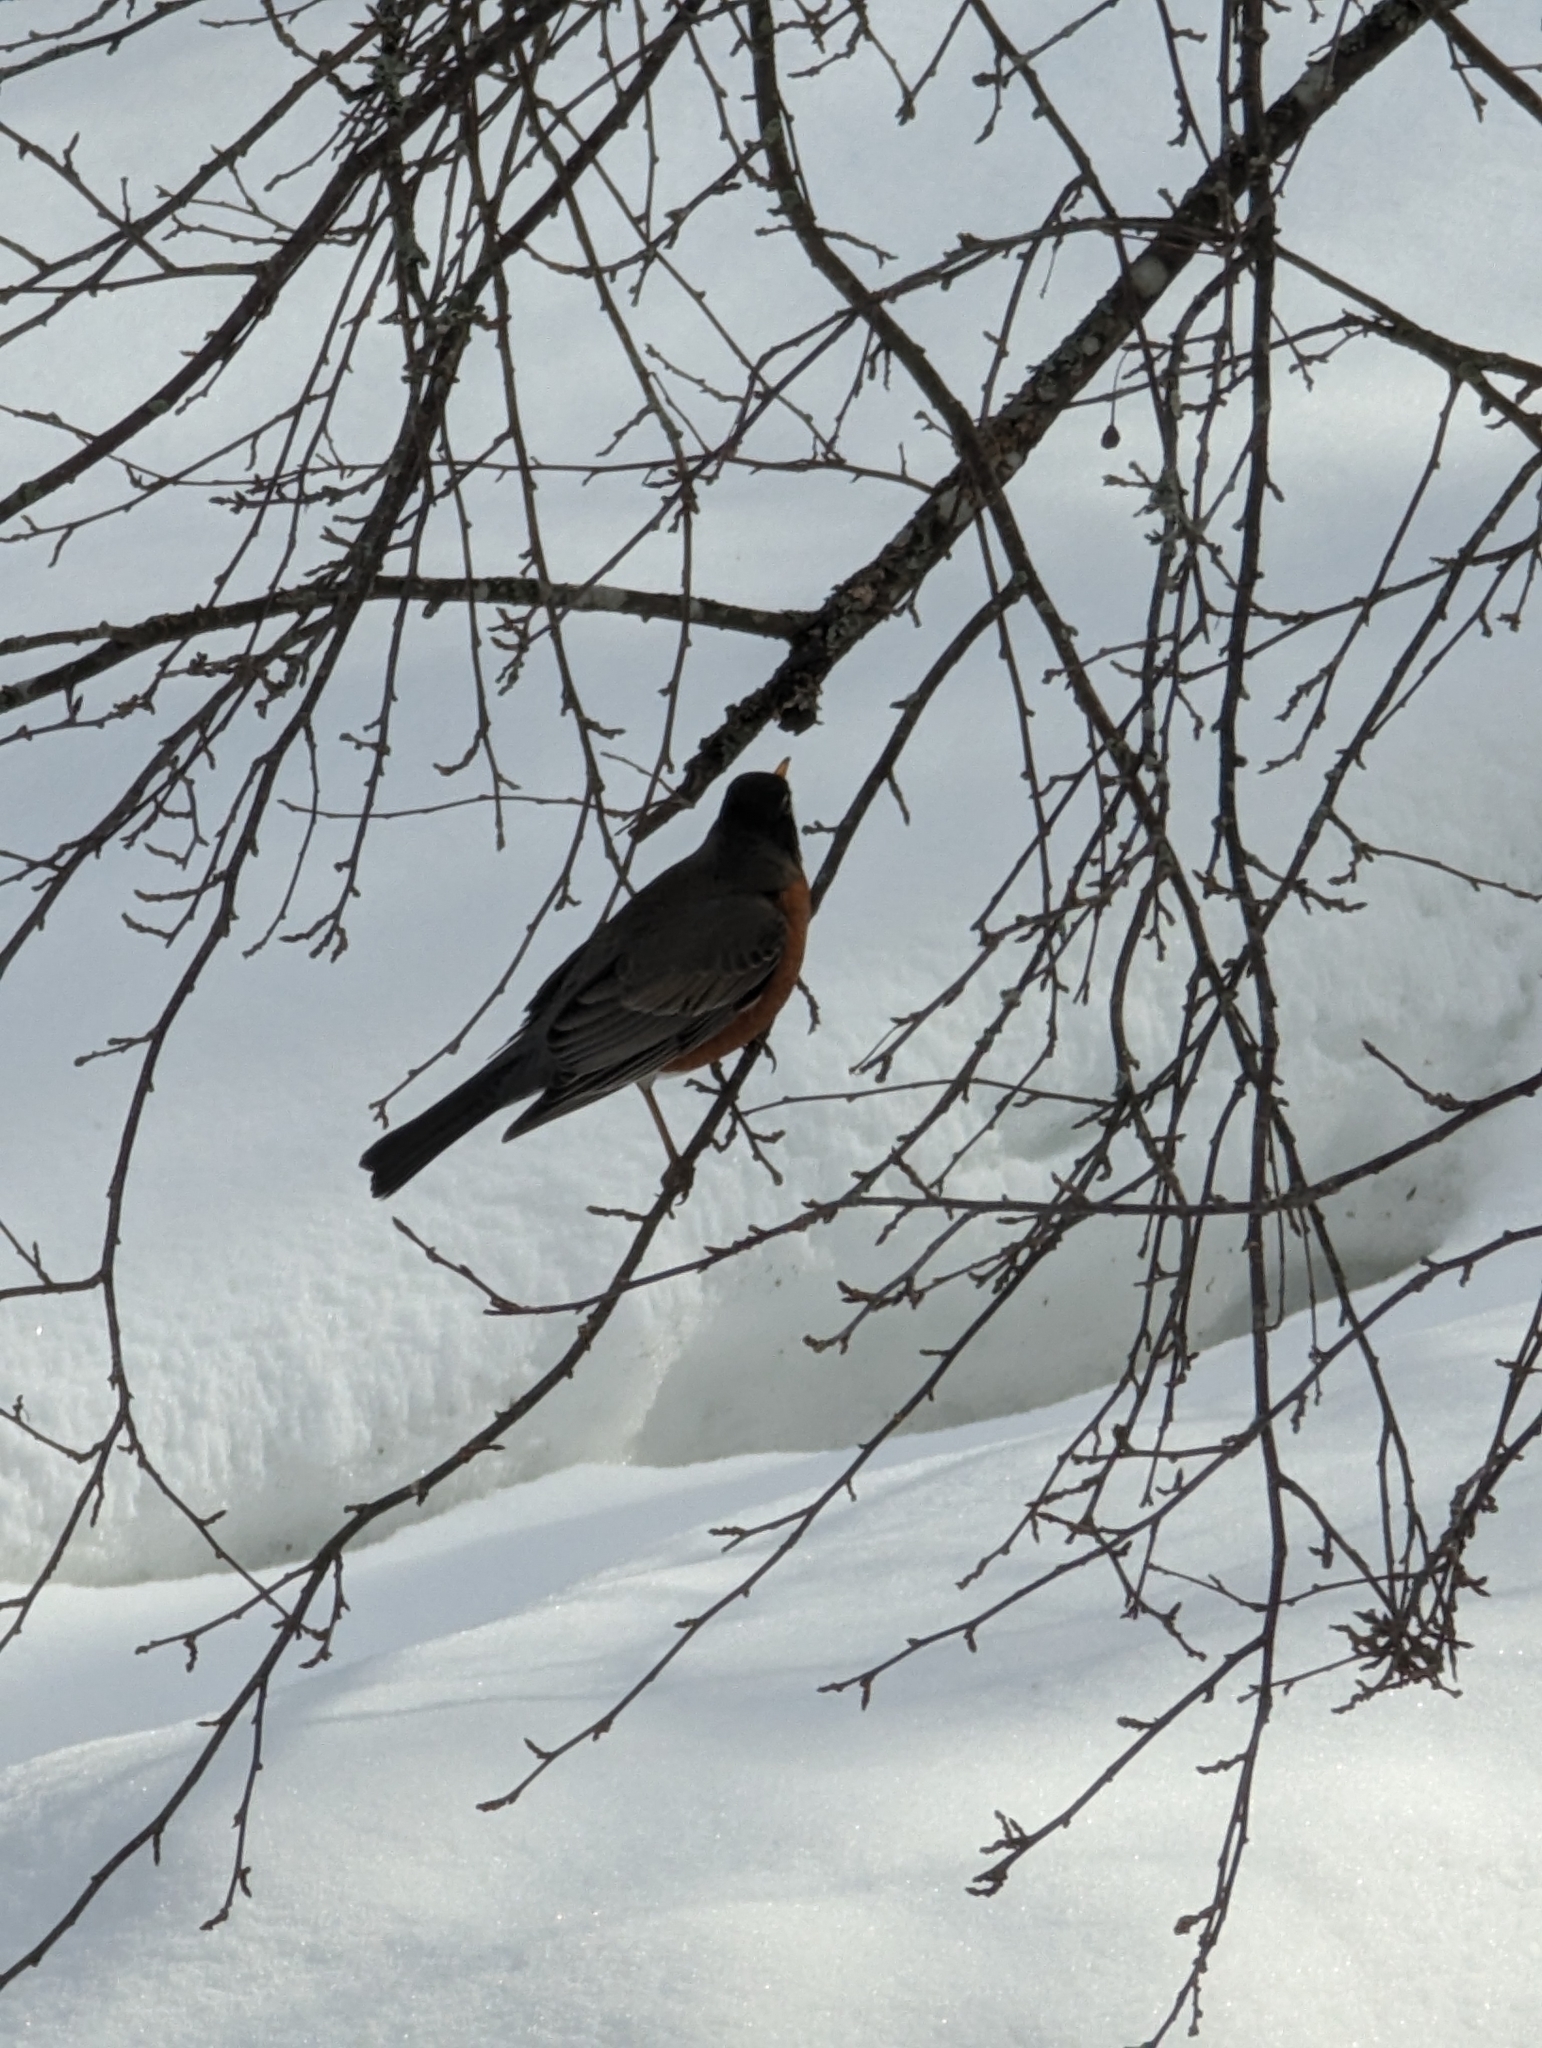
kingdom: Animalia
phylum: Chordata
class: Aves
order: Passeriformes
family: Turdidae
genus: Turdus
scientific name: Turdus migratorius
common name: American robin
